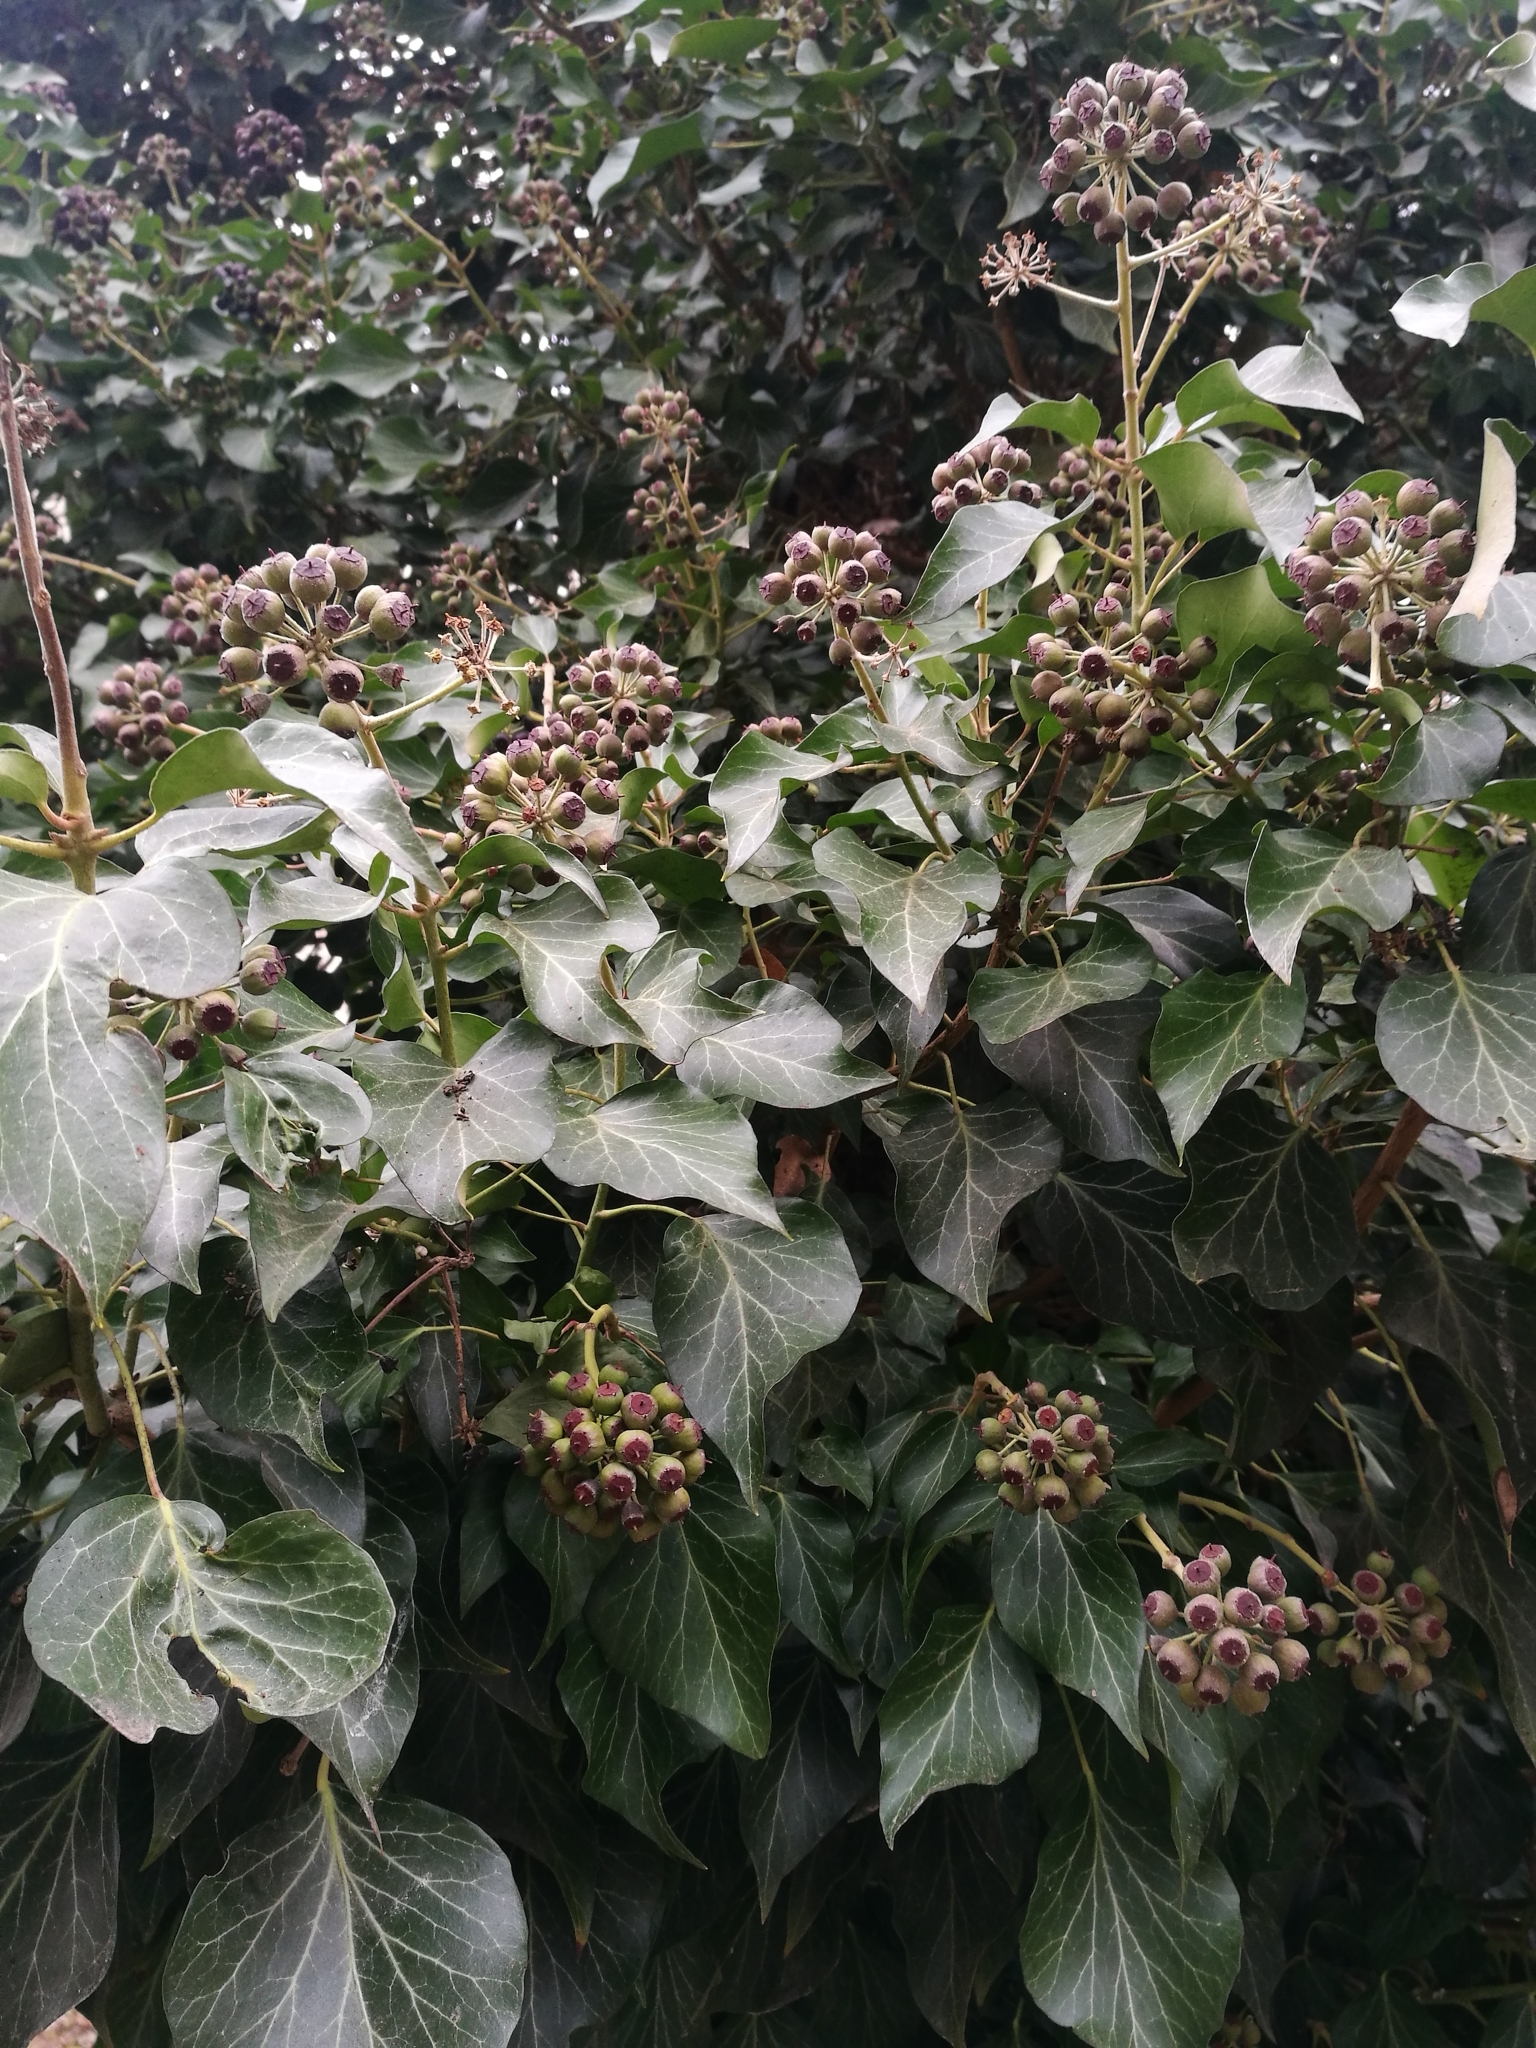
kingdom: Plantae
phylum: Tracheophyta
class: Magnoliopsida
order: Apiales
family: Araliaceae
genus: Hedera
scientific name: Hedera helix
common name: Ivy
